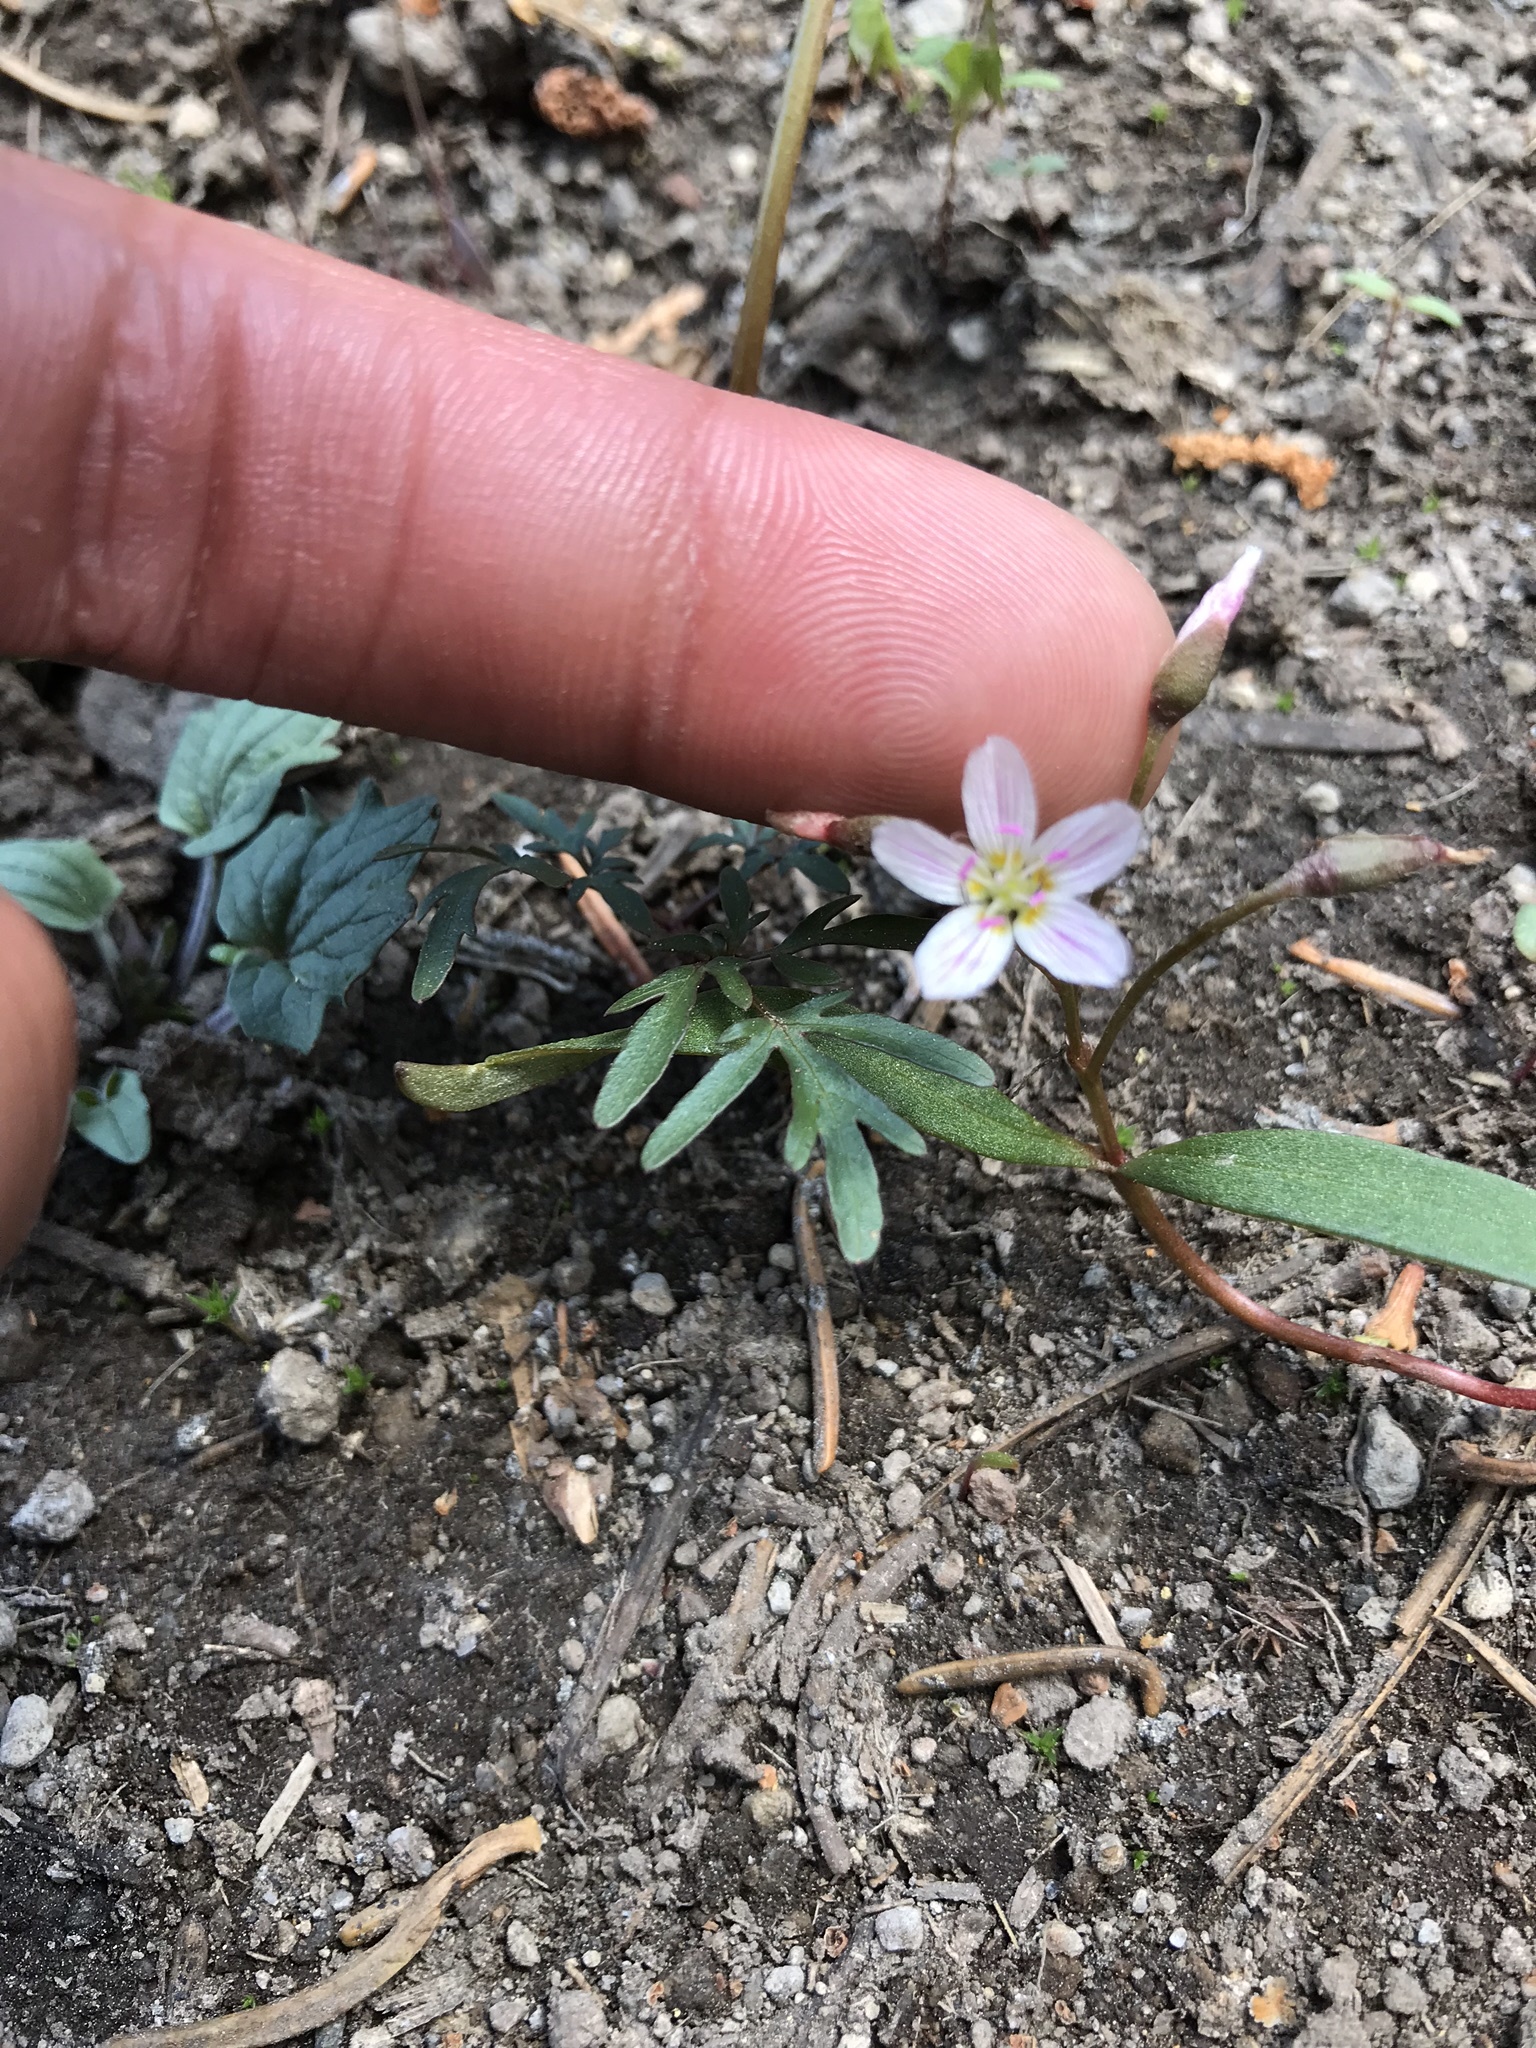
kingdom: Plantae
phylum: Tracheophyta
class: Magnoliopsida
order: Caryophyllales
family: Montiaceae
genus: Claytonia
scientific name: Claytonia lanceolata
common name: Western spring-beauty
